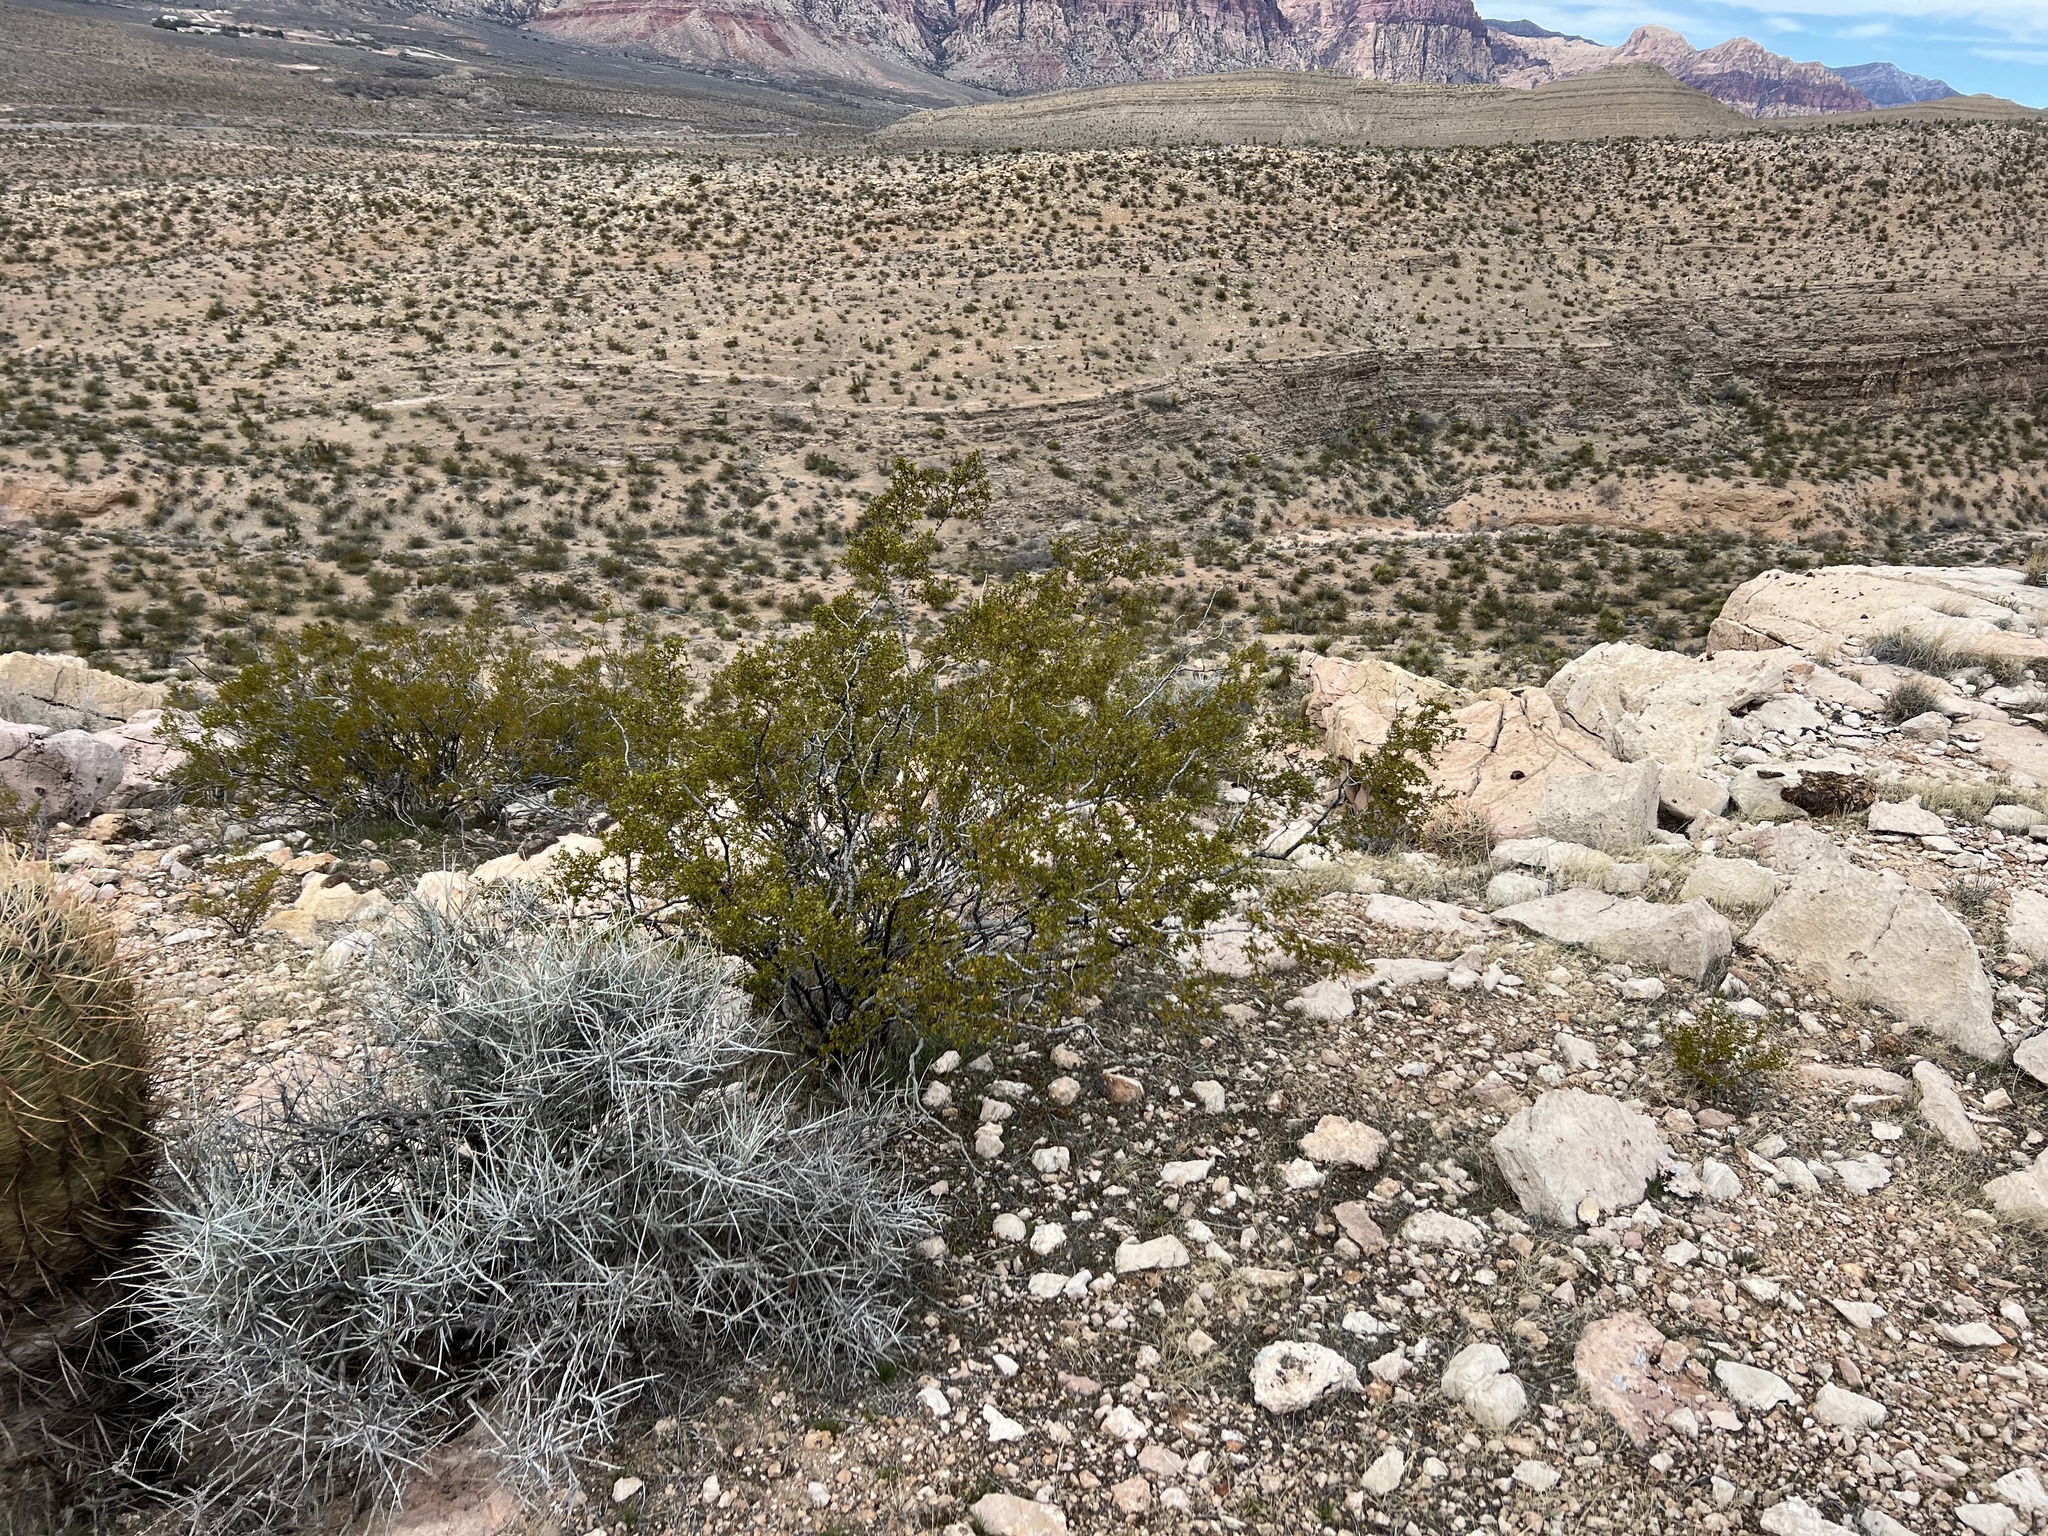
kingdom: Plantae
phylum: Tracheophyta
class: Magnoliopsida
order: Zygophyllales
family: Zygophyllaceae
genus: Larrea
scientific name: Larrea tridentata
